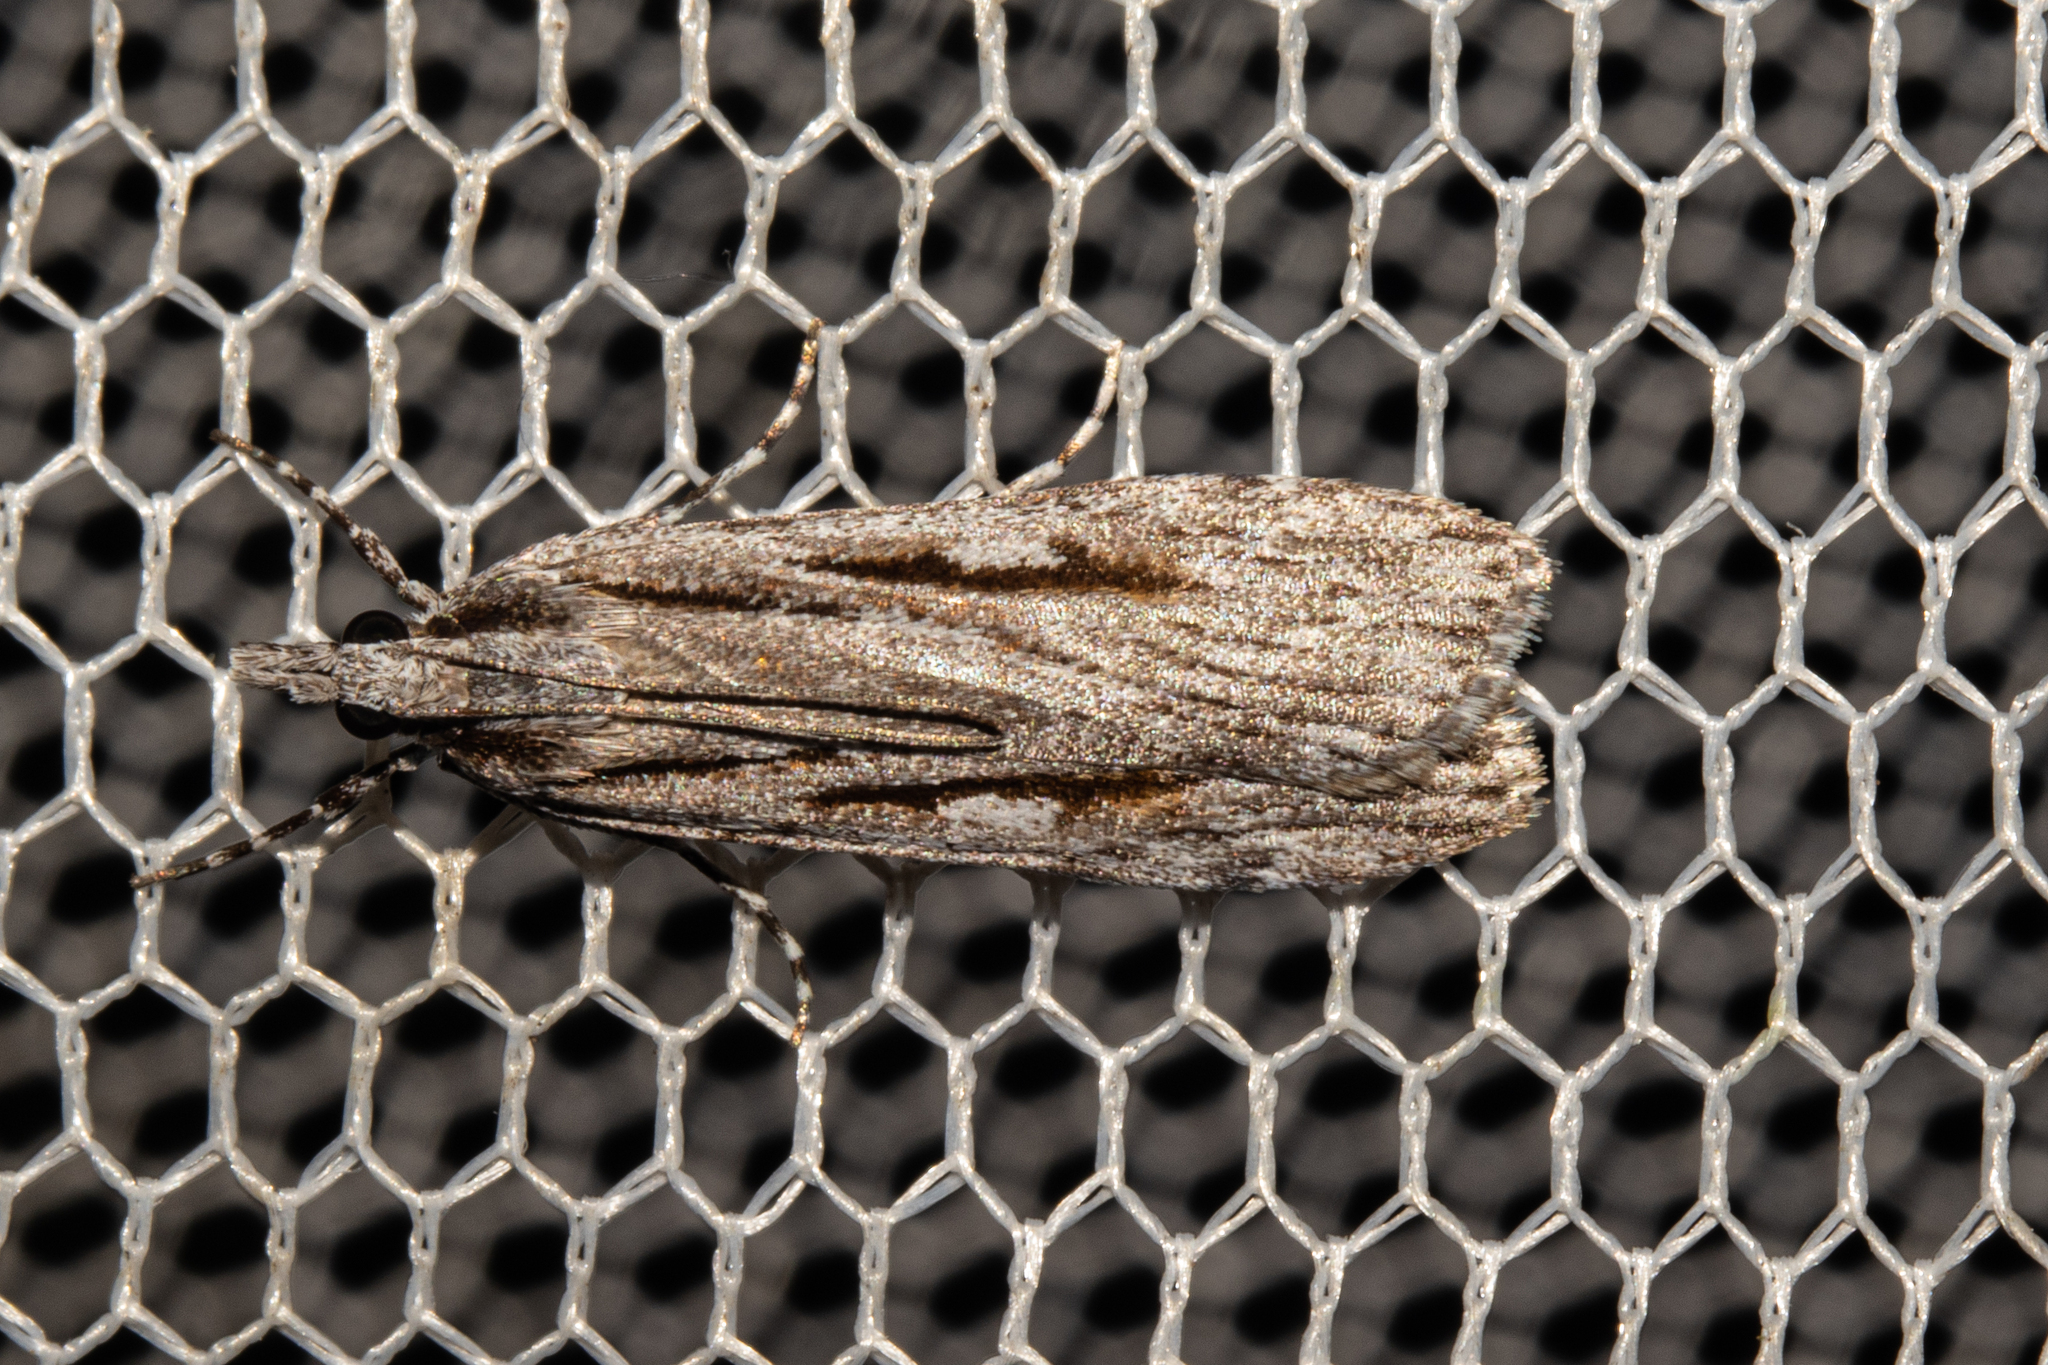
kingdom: Animalia
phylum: Arthropoda
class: Insecta
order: Lepidoptera
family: Crambidae
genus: Scoparia
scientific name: Scoparia indistinctalis
